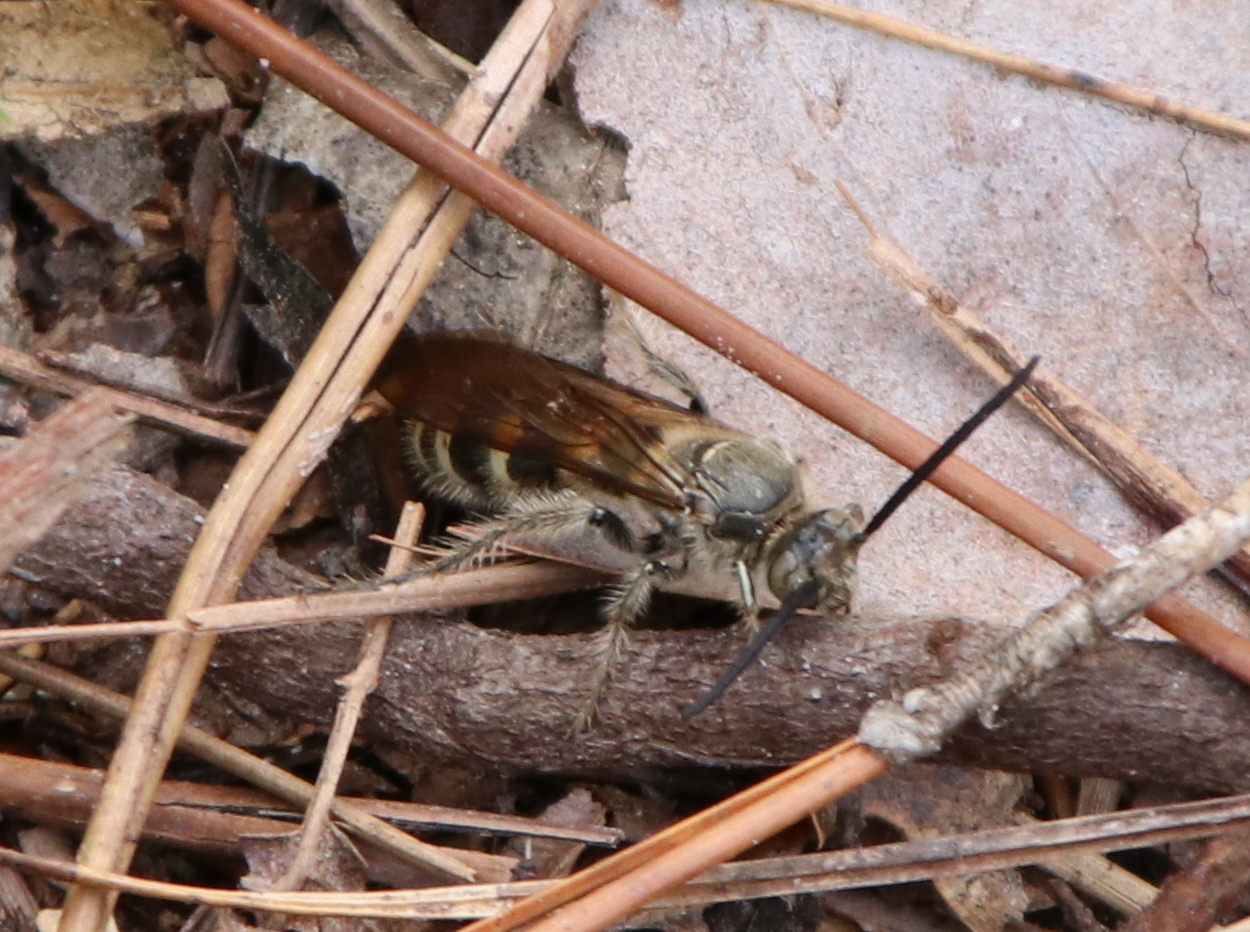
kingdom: Animalia
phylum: Arthropoda
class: Insecta
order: Hymenoptera
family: Scoliidae
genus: Dielis
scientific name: Dielis
